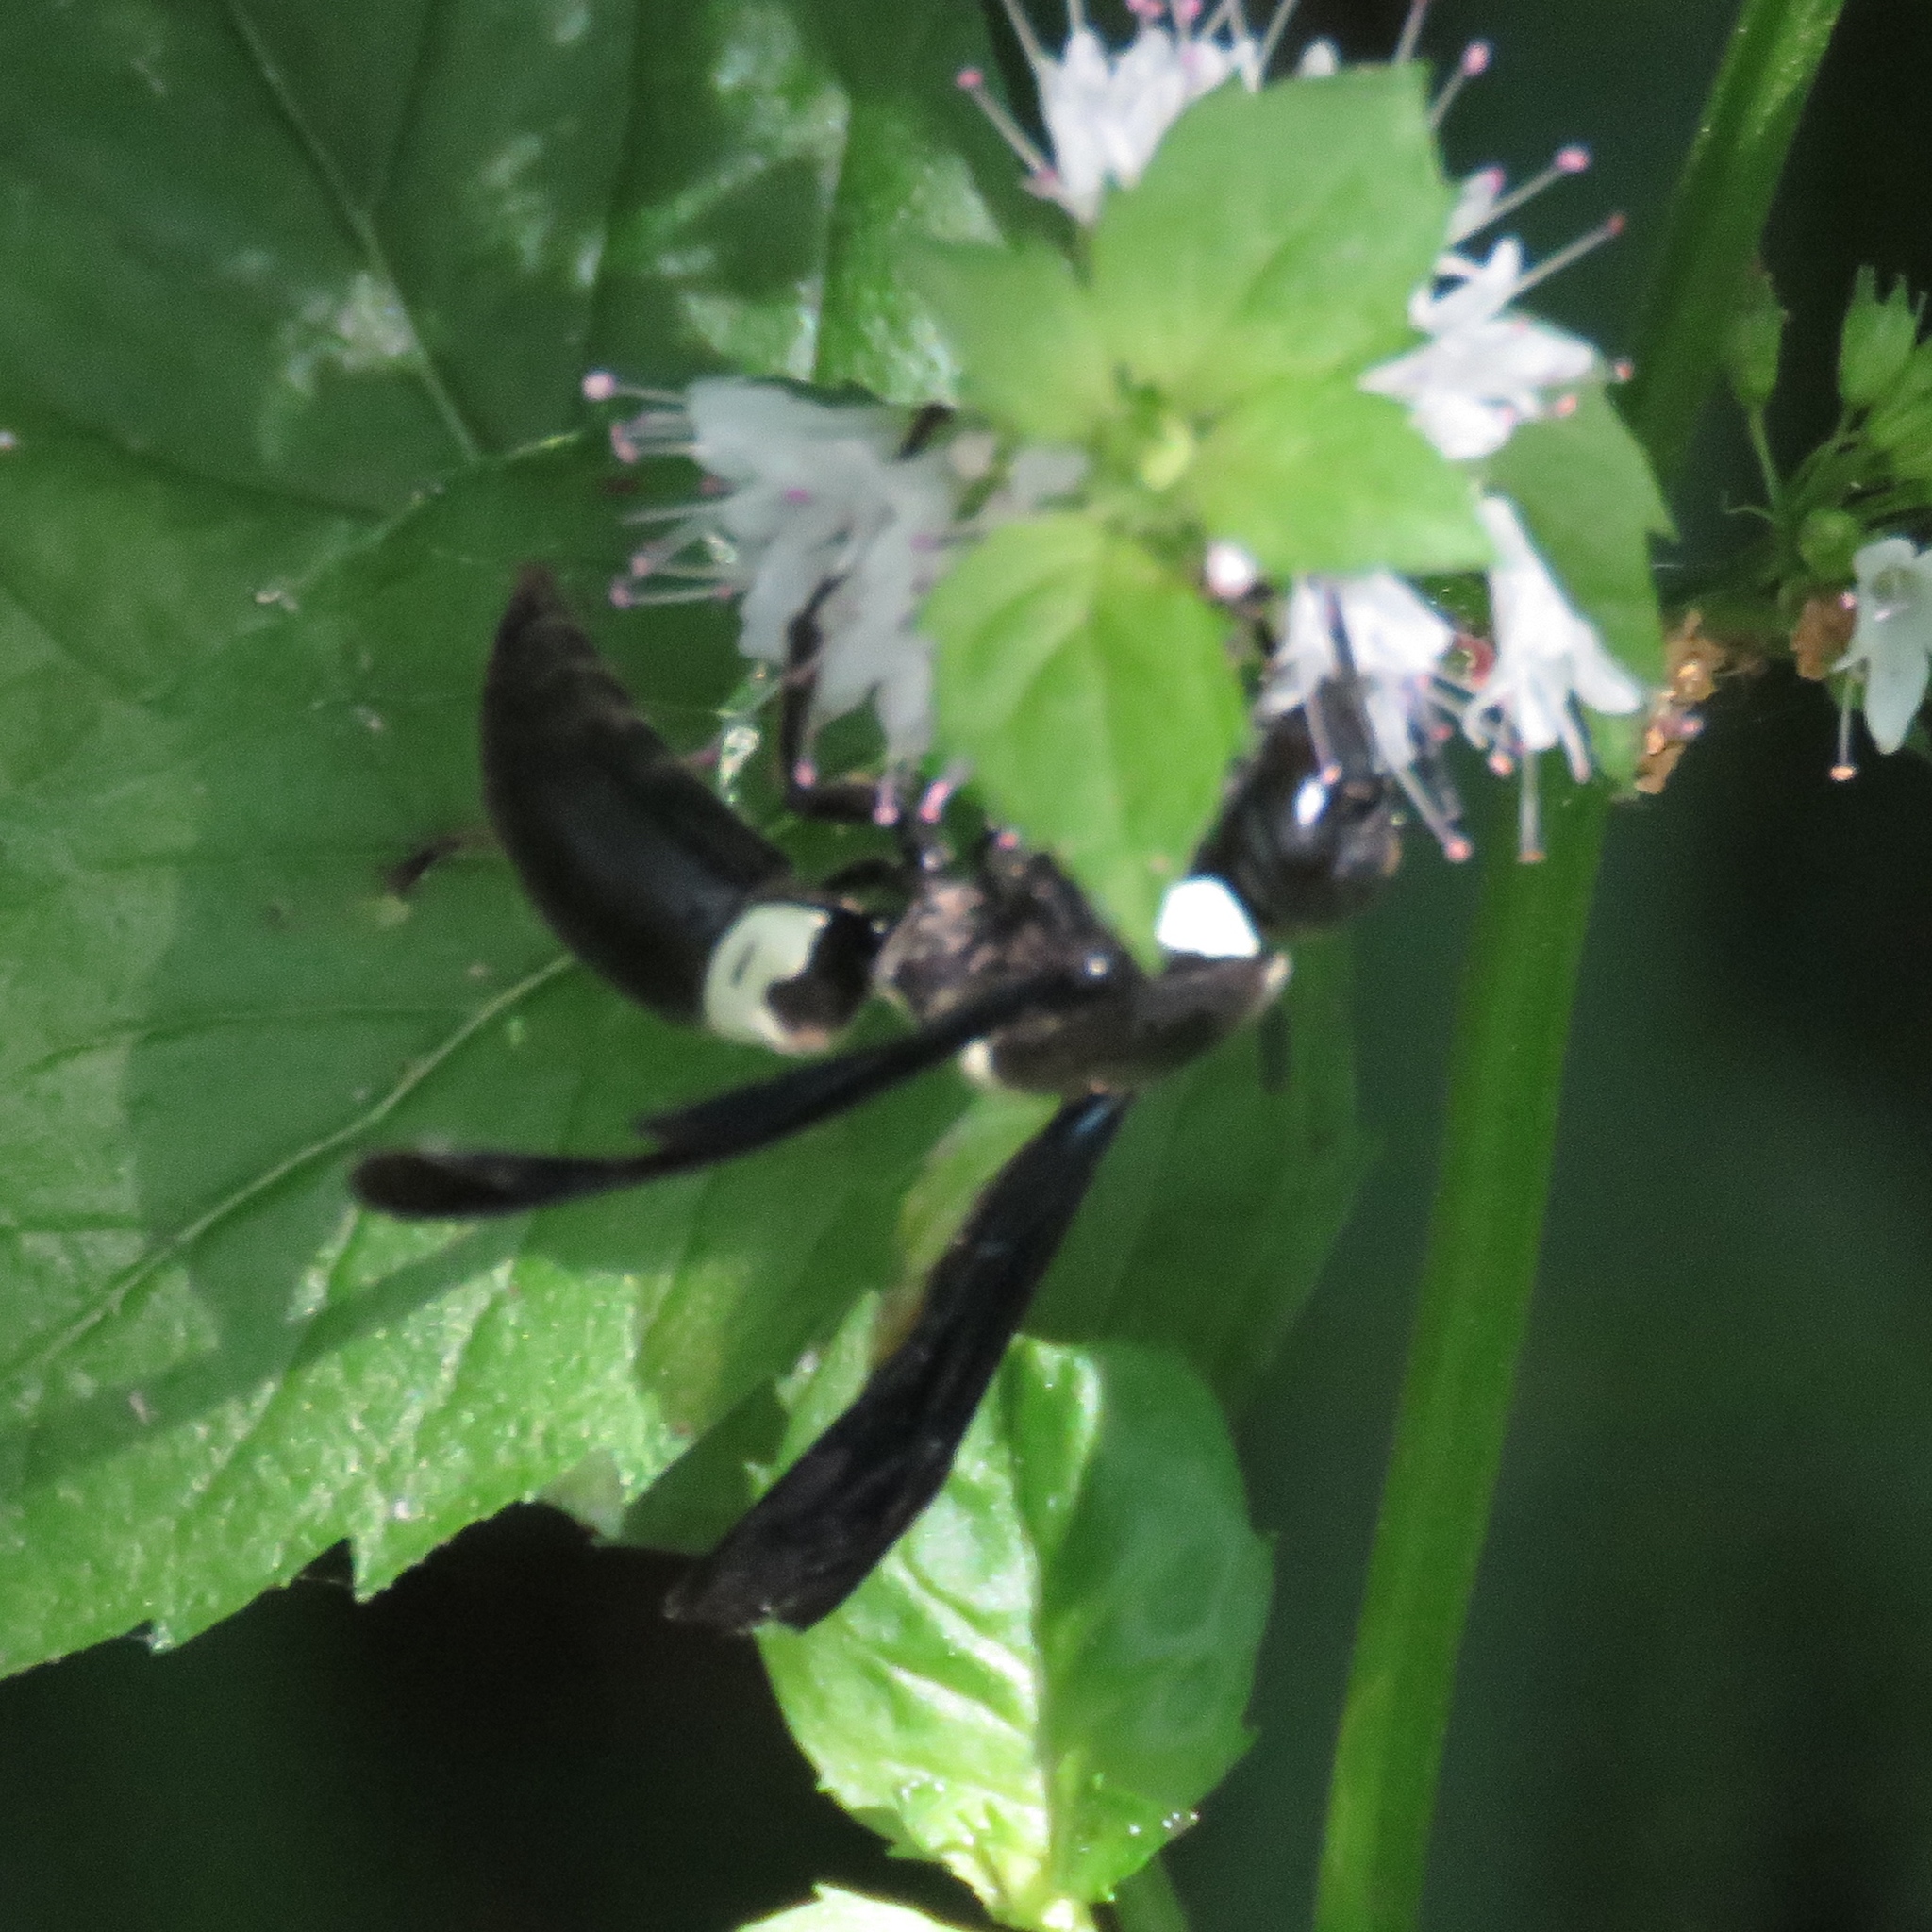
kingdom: Animalia
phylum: Arthropoda
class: Insecta
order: Hymenoptera
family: Eumenidae
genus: Monobia
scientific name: Monobia quadridens
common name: Four-toothed mason wasp
